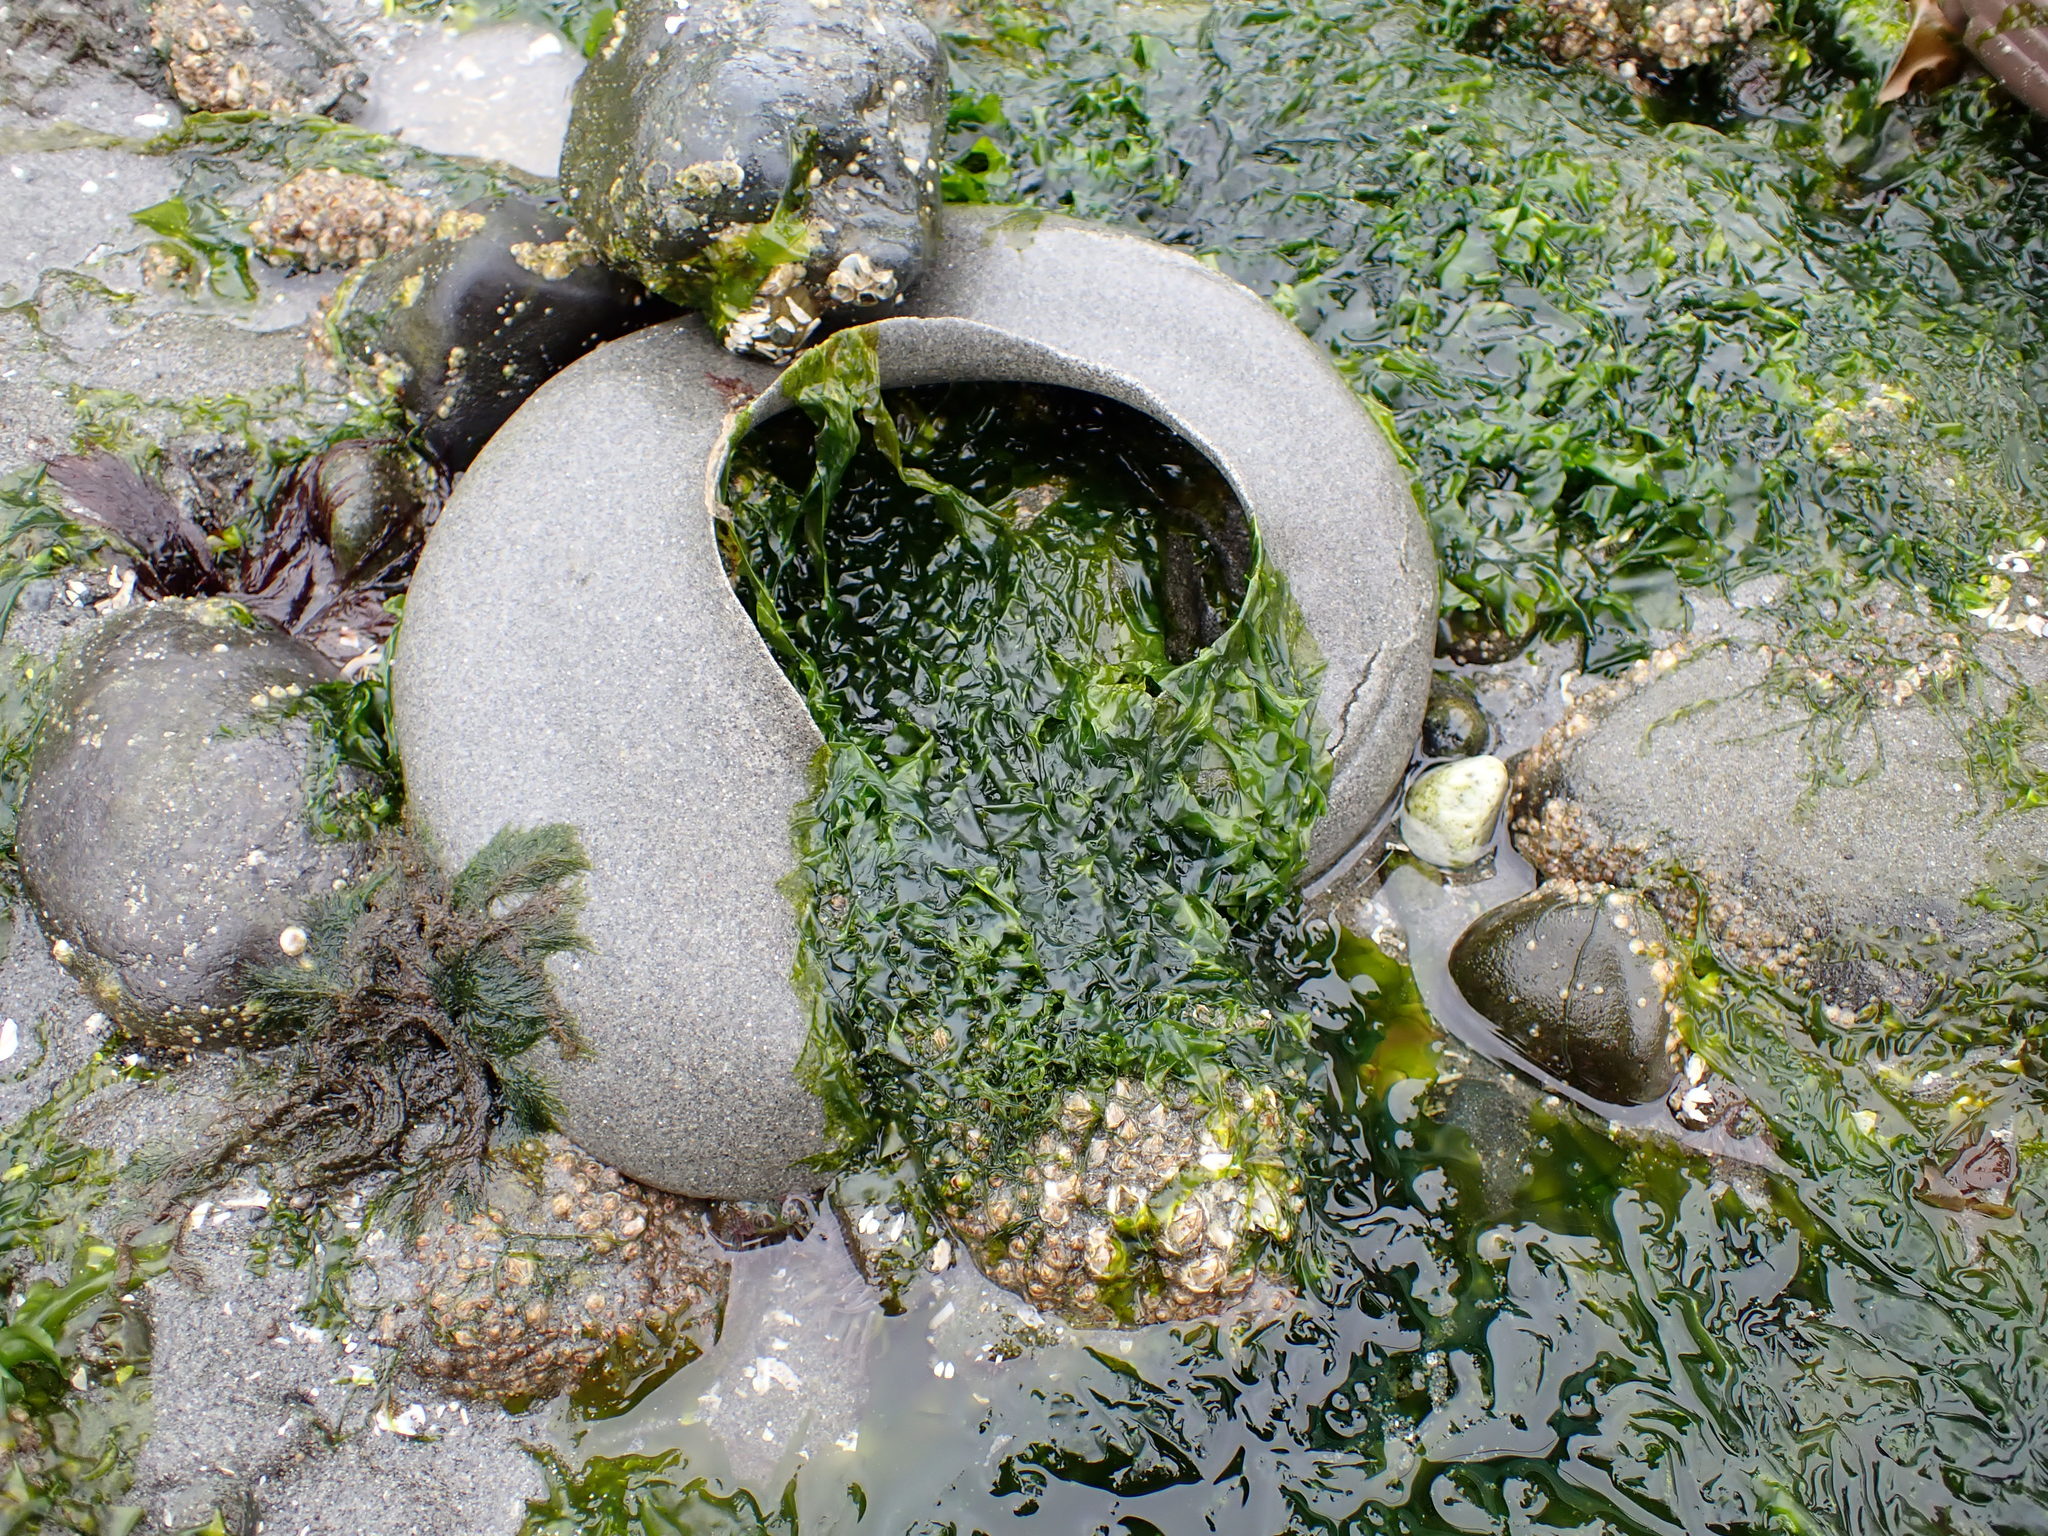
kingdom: Animalia
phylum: Mollusca
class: Gastropoda
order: Littorinimorpha
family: Naticidae
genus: Neverita
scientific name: Neverita lewisii
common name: Lewis' moonsnail
